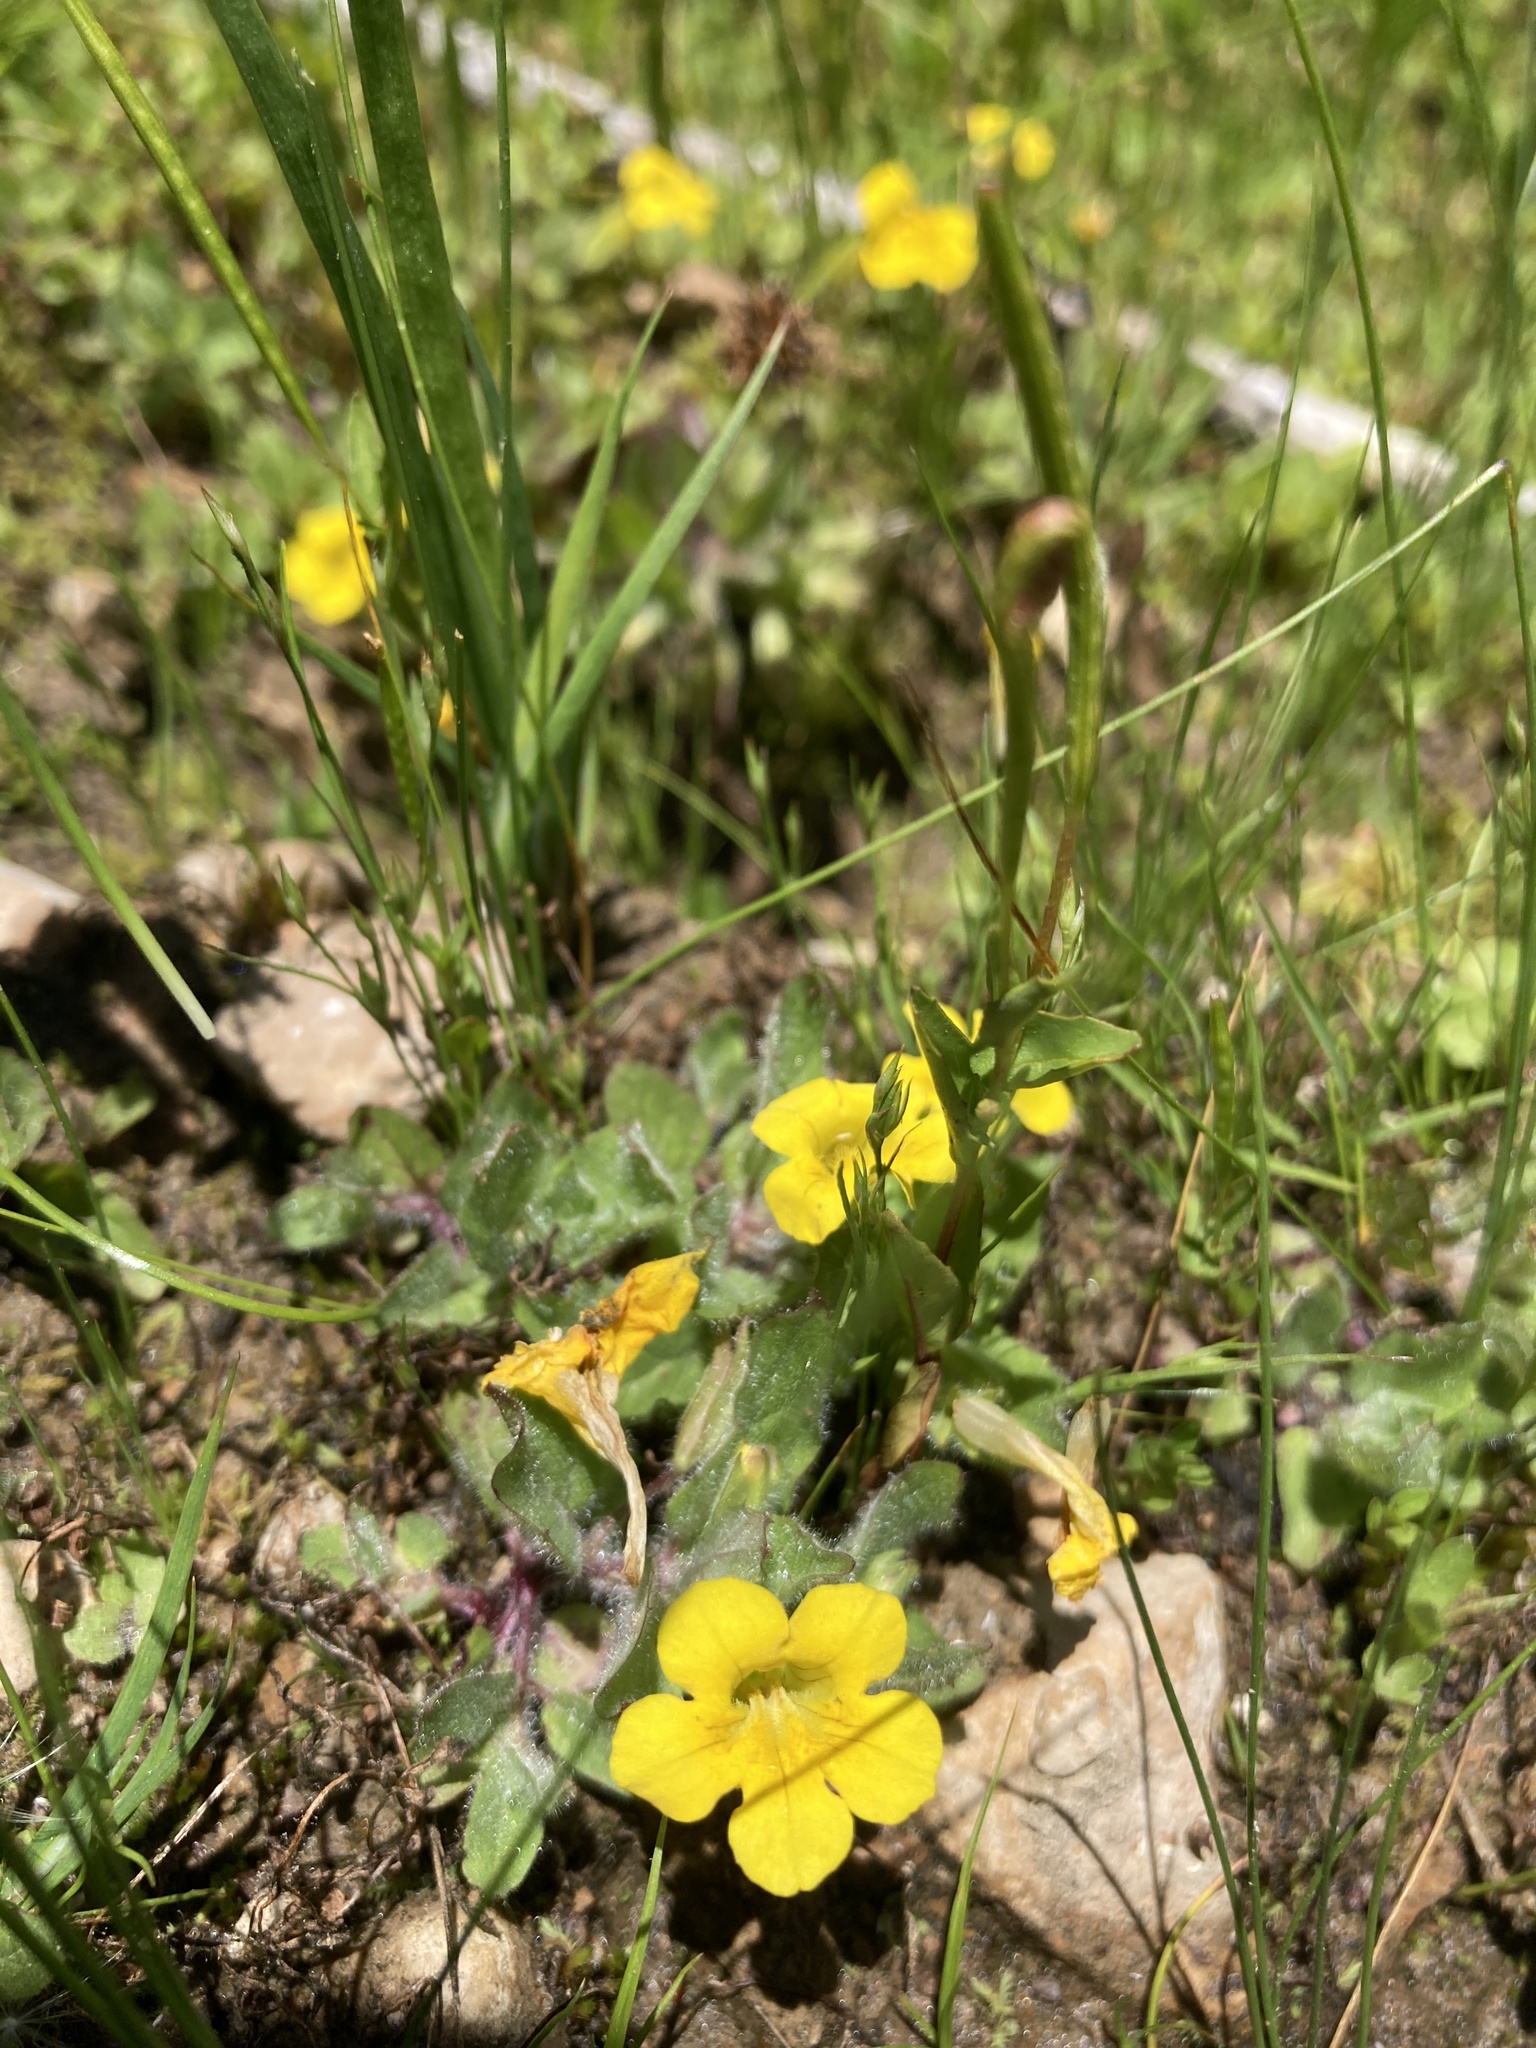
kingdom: Plantae
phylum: Tracheophyta
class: Magnoliopsida
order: Lamiales
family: Phrymaceae
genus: Erythranthe
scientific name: Erythranthe moschata
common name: Muskflower
